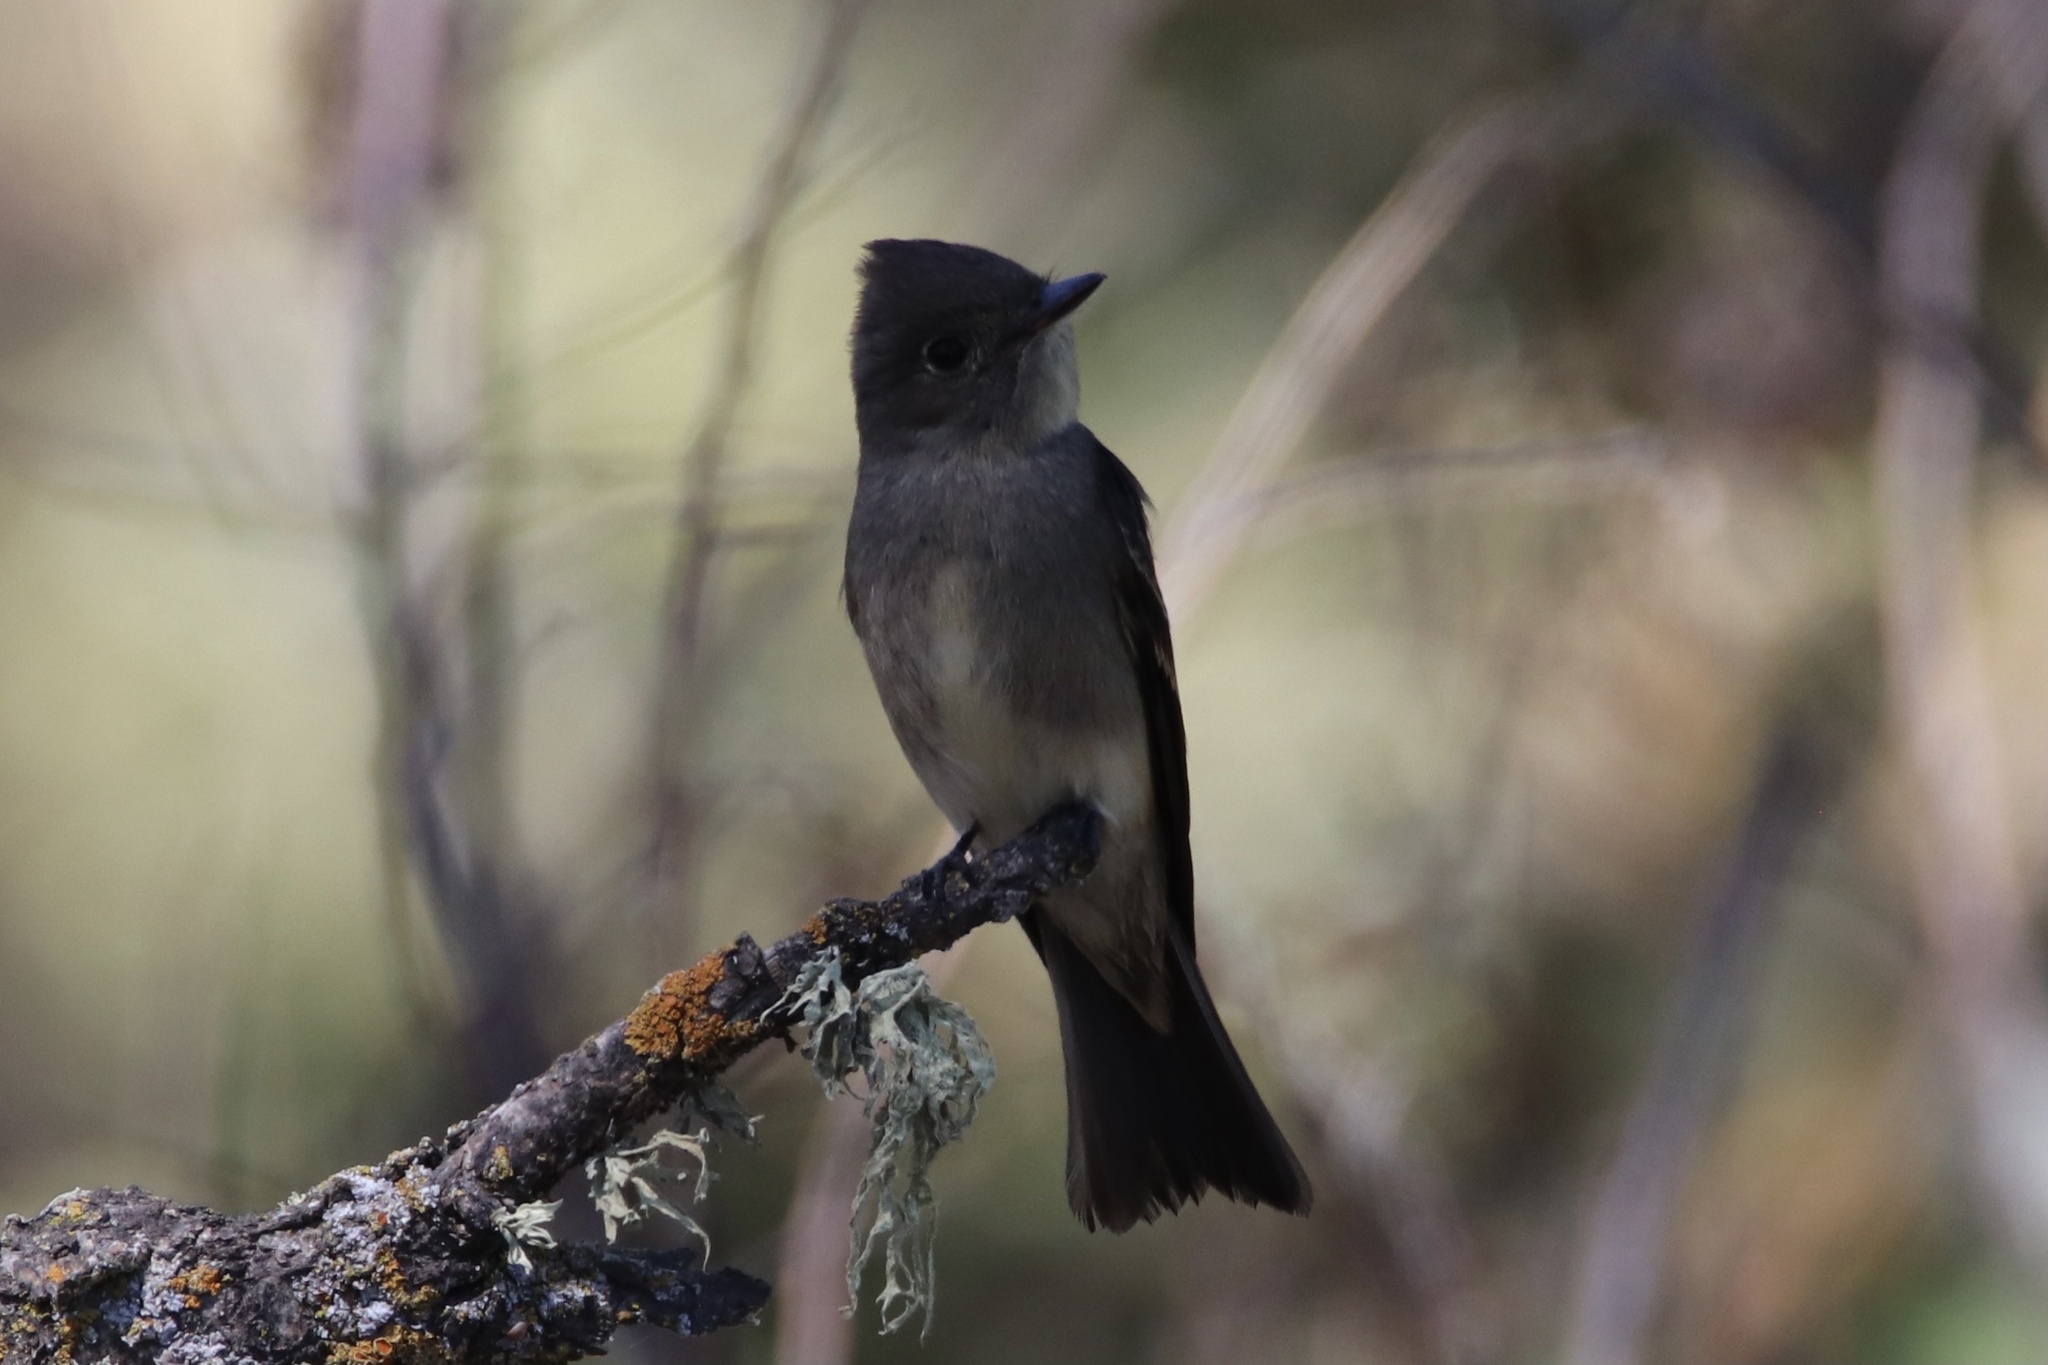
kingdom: Animalia
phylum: Chordata
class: Aves
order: Passeriformes
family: Tyrannidae
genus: Contopus
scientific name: Contopus sordidulus
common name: Western wood-pewee
